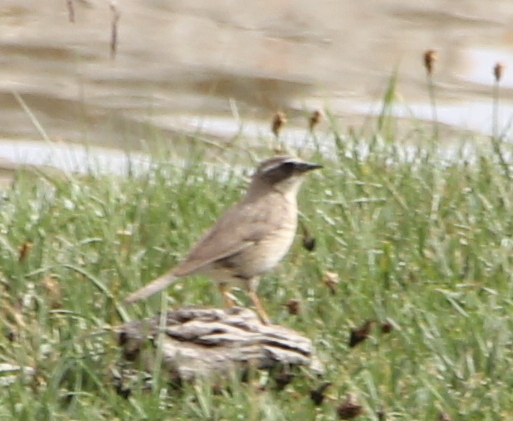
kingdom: Animalia
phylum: Chordata
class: Aves
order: Passeriformes
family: Prunellidae
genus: Prunella
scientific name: Prunella fulvescens
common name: Brown accentor
